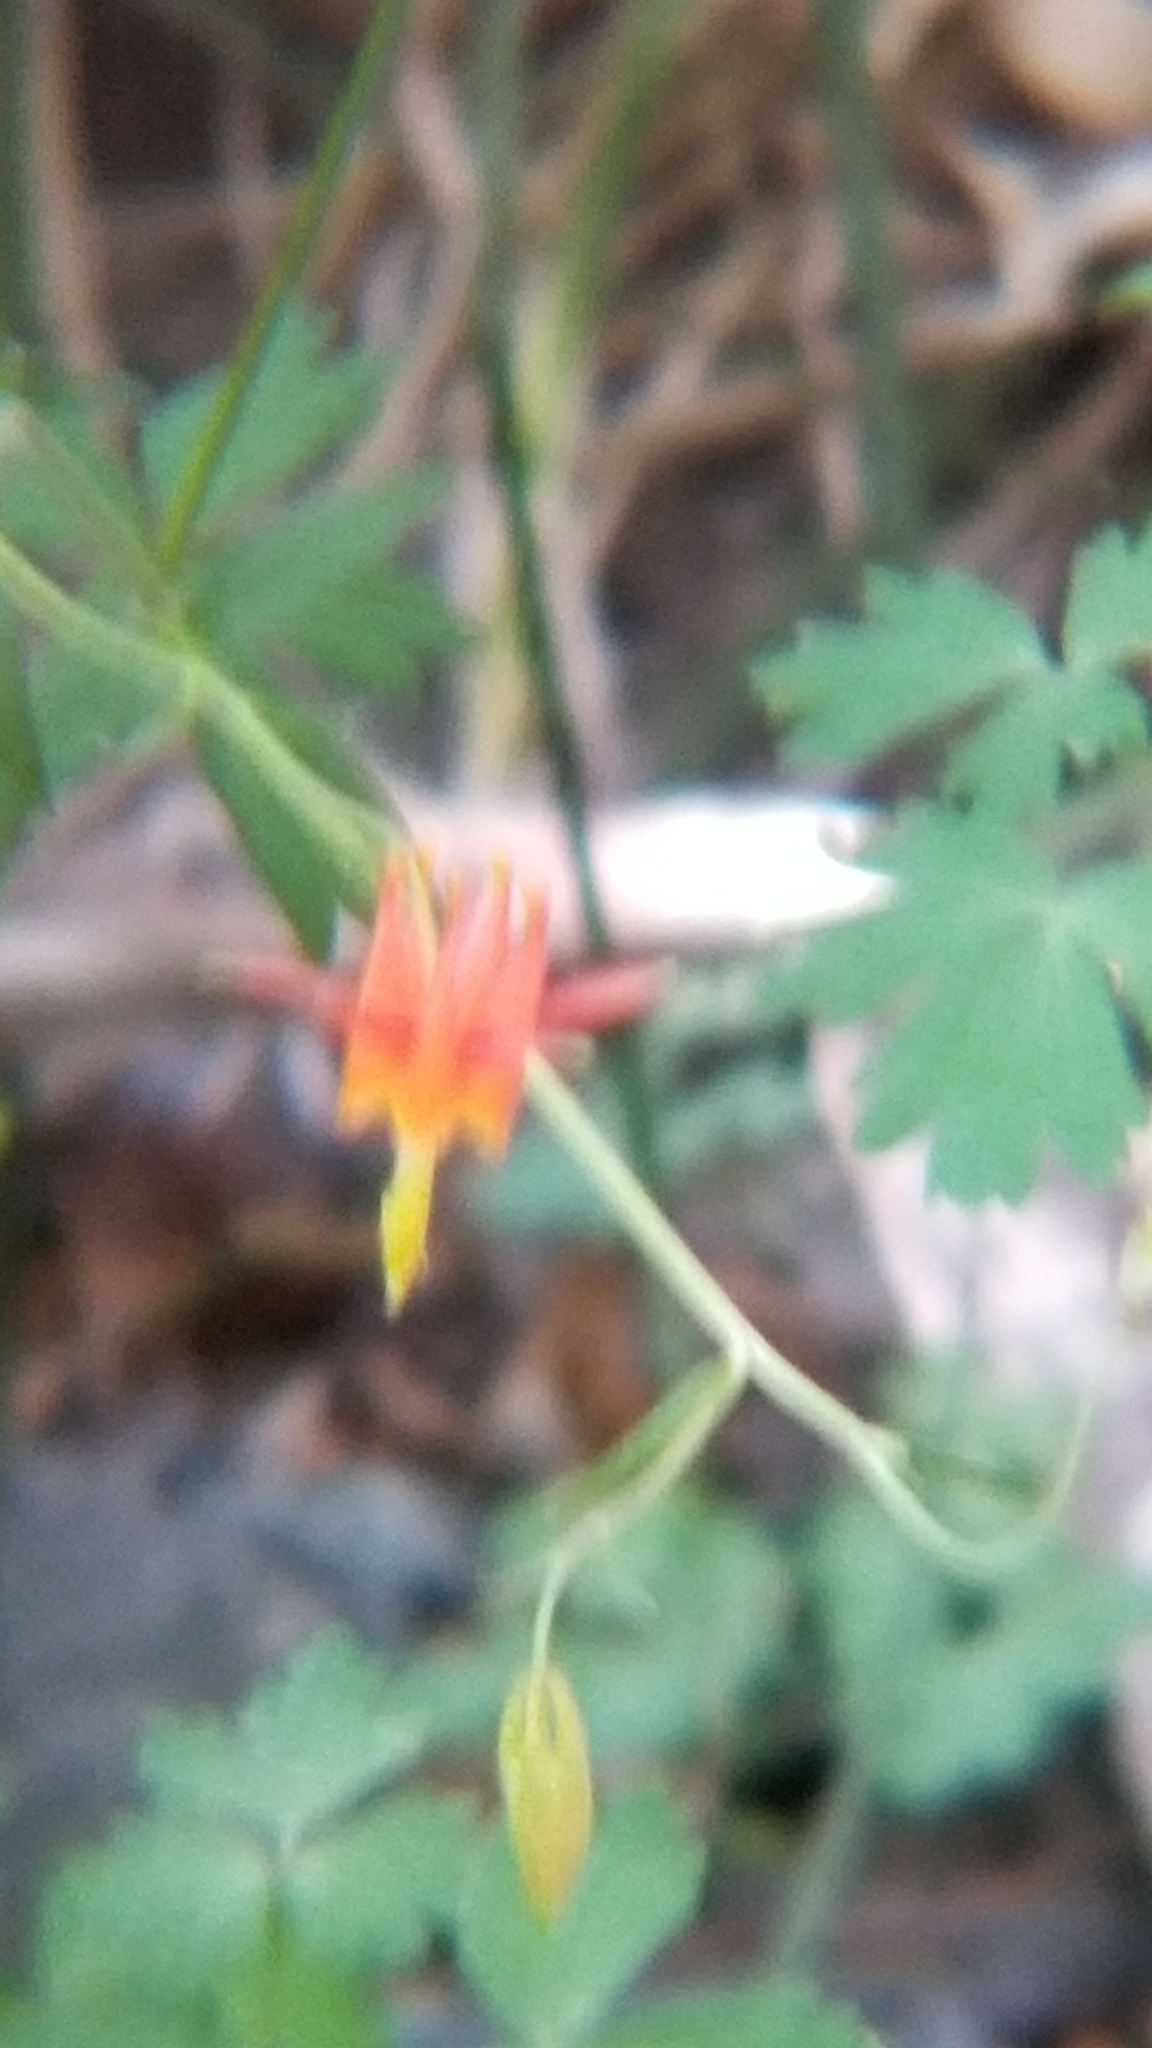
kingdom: Plantae
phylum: Tracheophyta
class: Magnoliopsida
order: Ranunculales
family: Ranunculaceae
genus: Aquilegia
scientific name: Aquilegia formosa
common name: Sitka columbine
